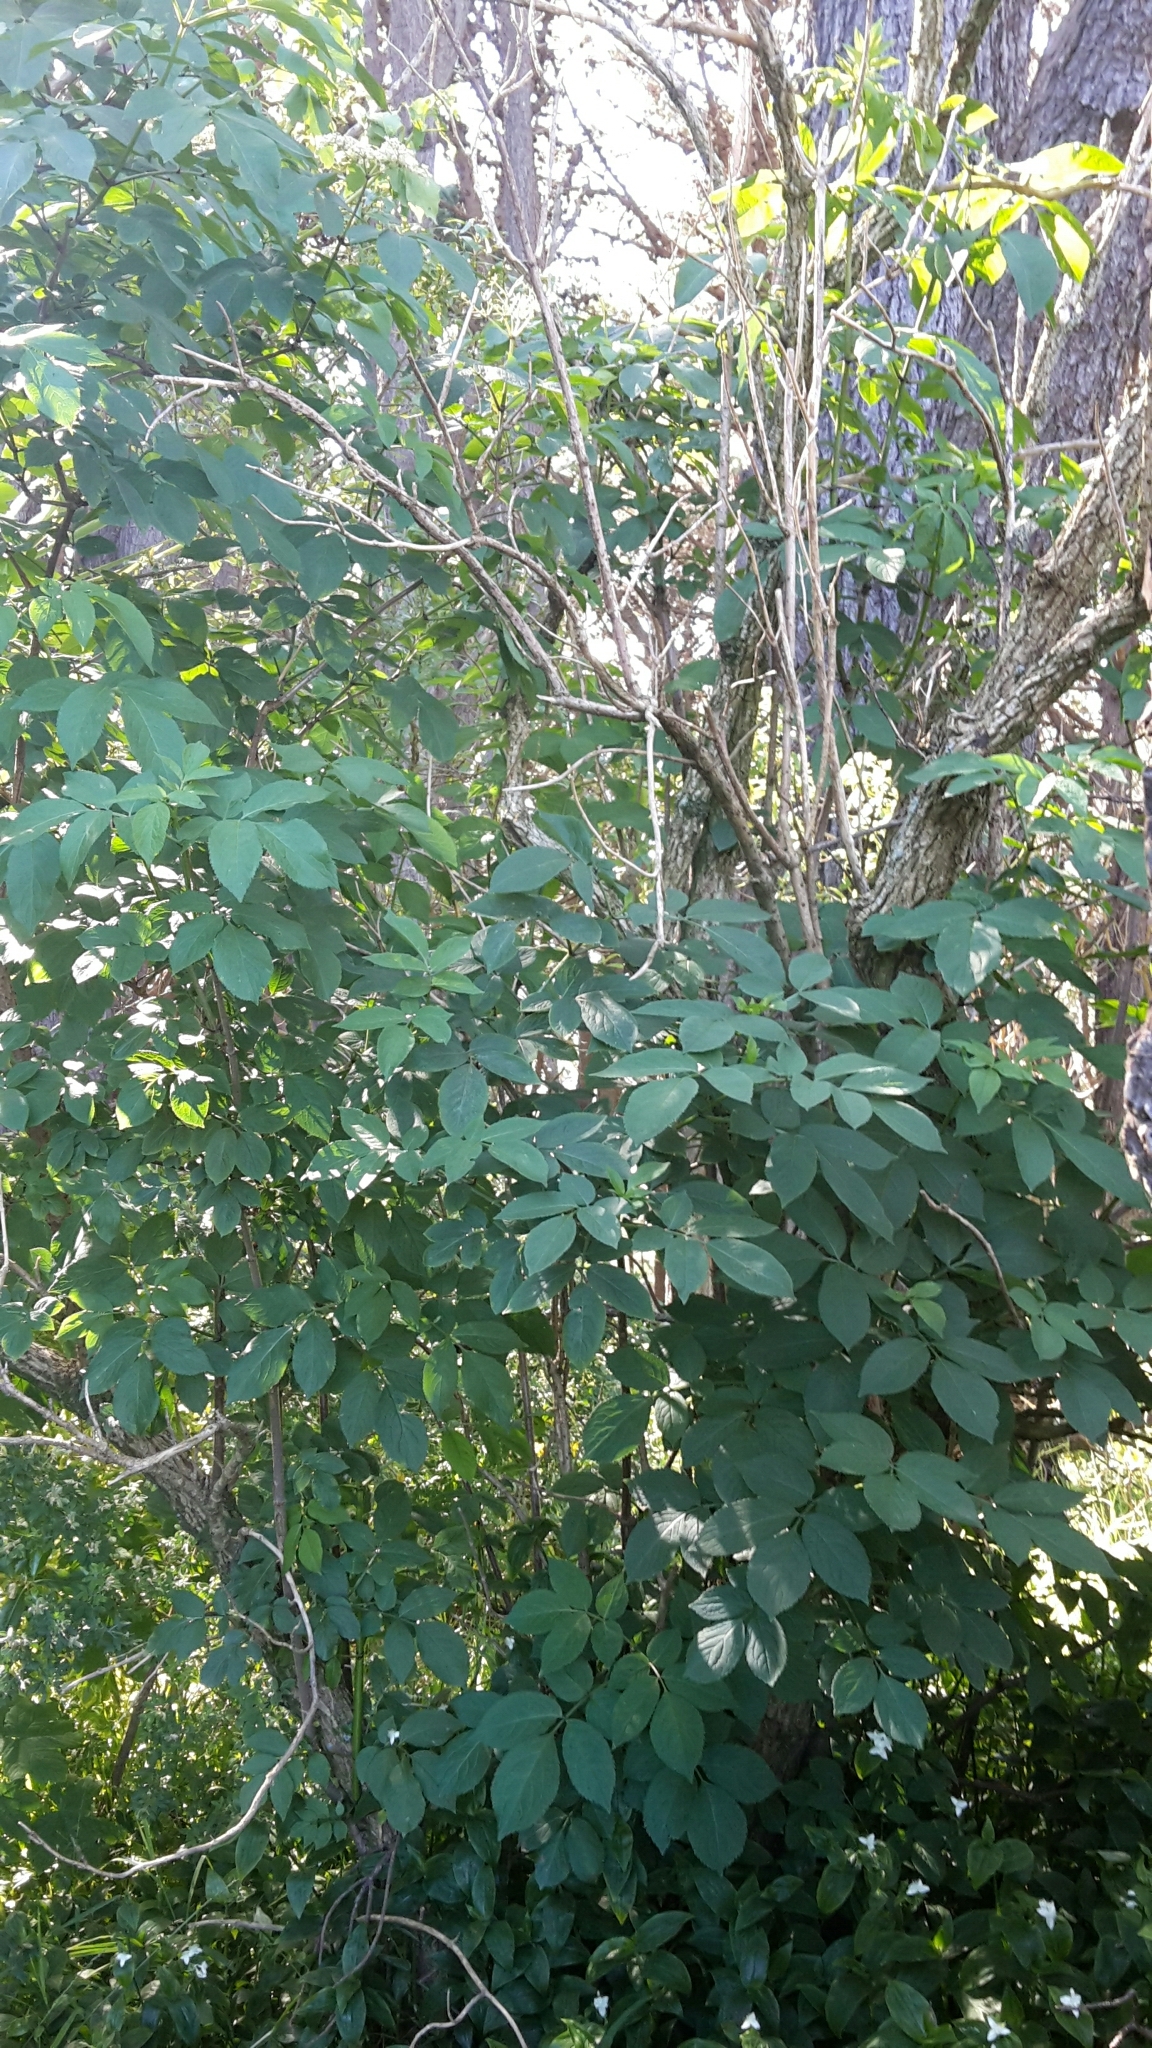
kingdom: Plantae
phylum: Tracheophyta
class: Magnoliopsida
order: Dipsacales
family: Viburnaceae
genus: Sambucus
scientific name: Sambucus nigra
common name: Elder
